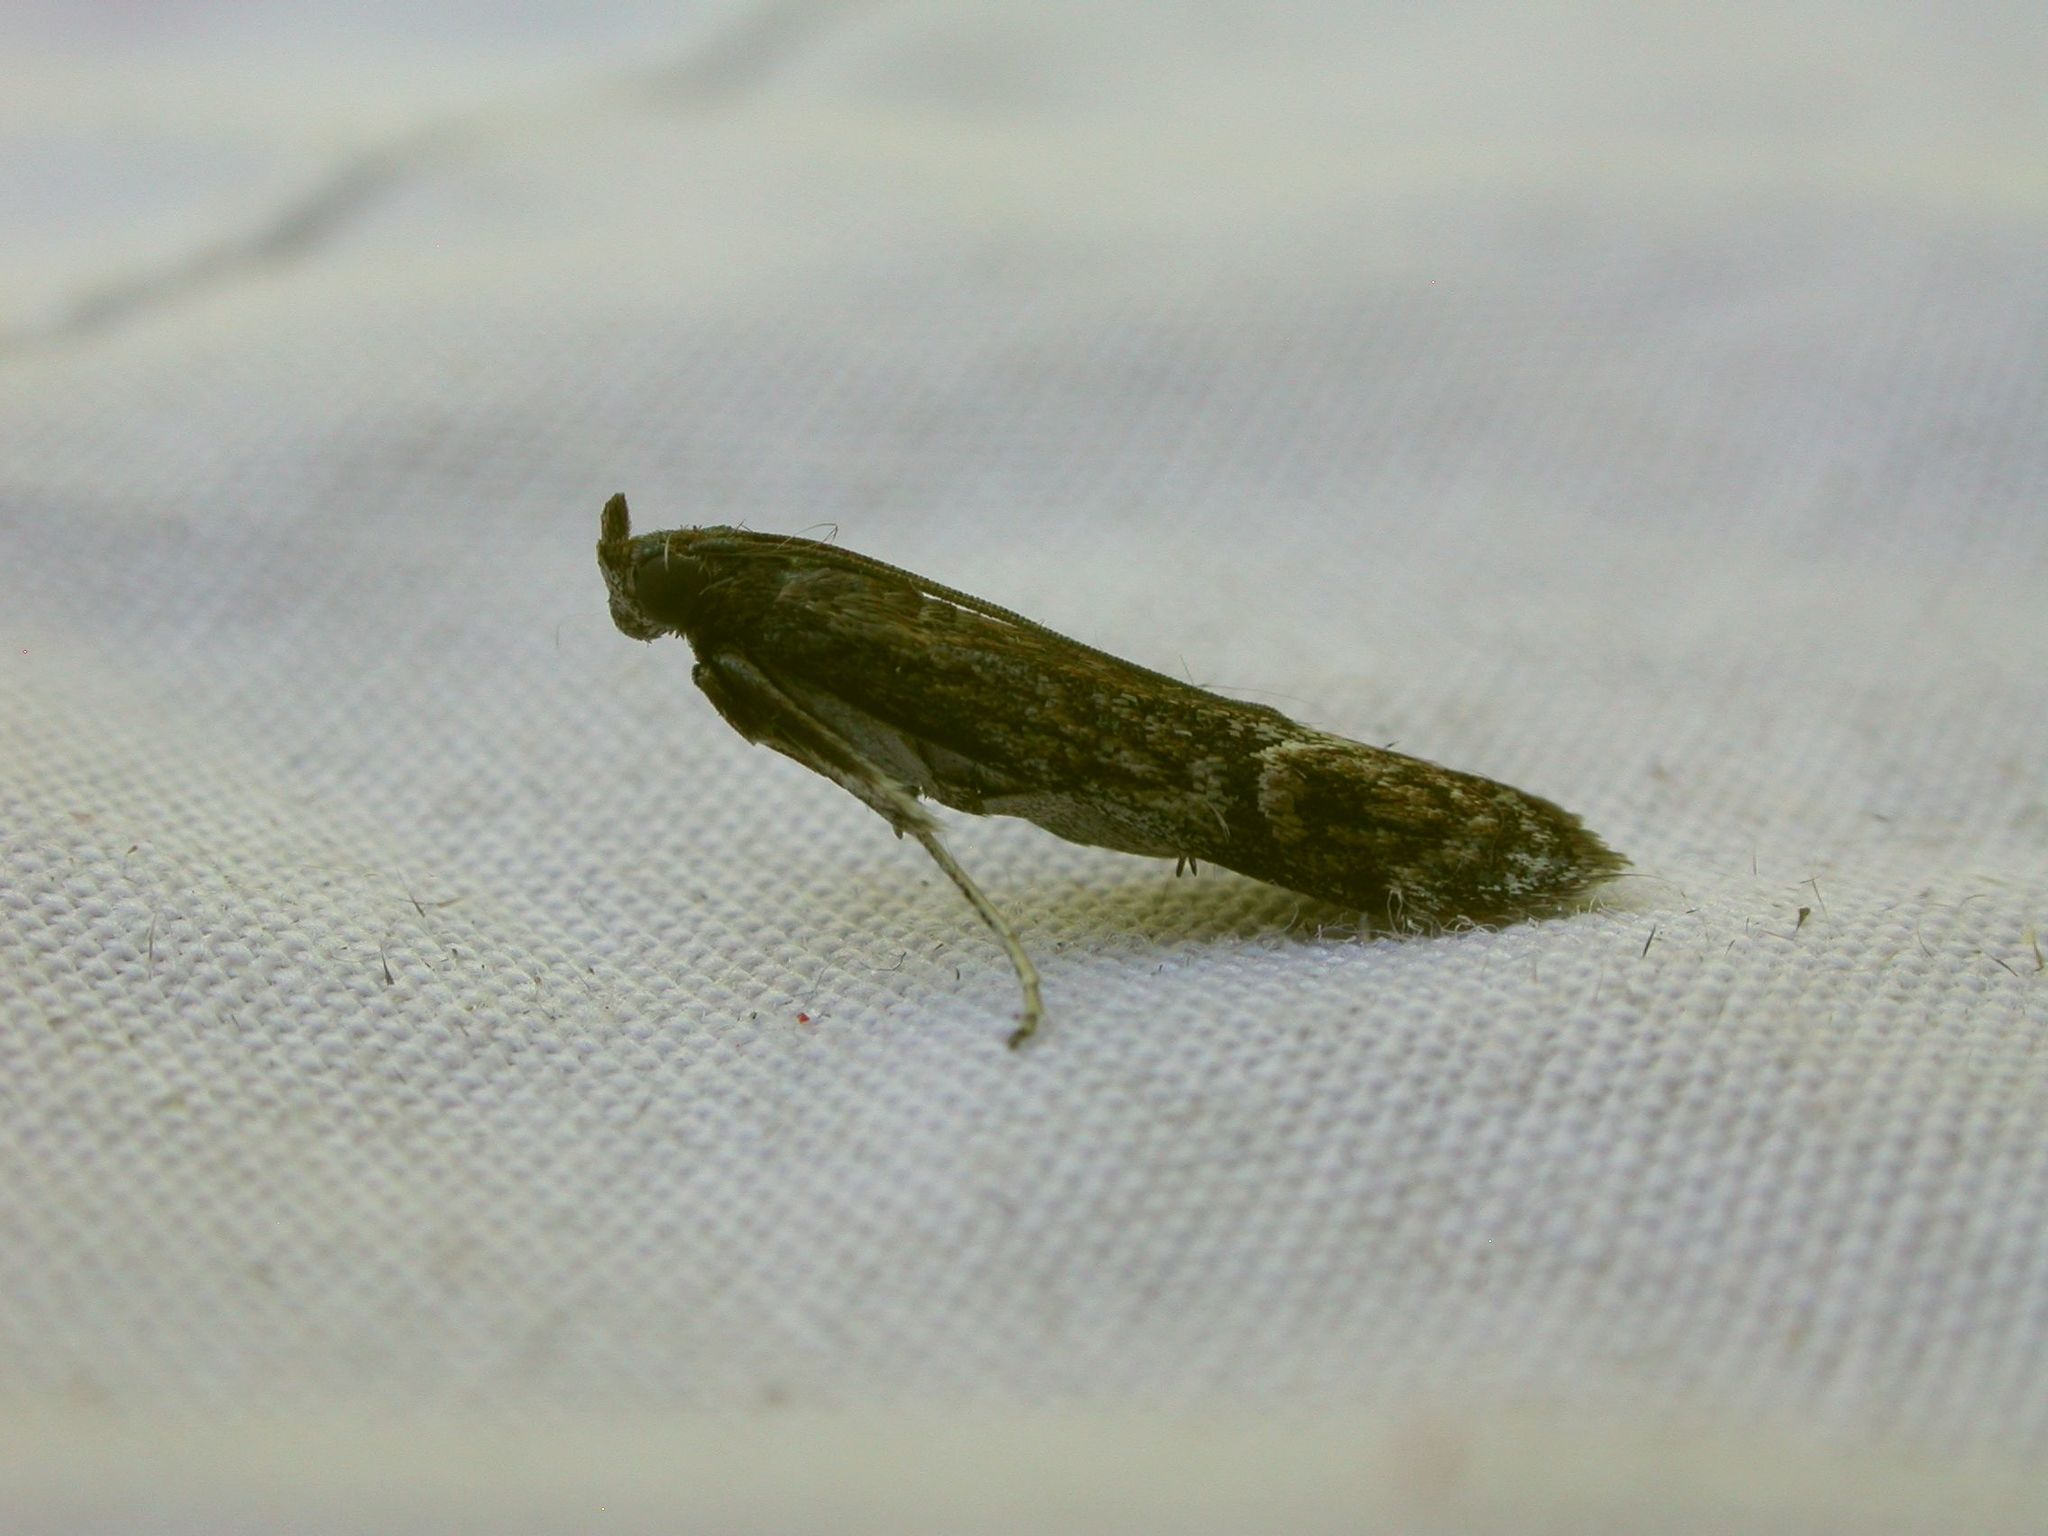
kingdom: Animalia
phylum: Arthropoda
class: Insecta
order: Lepidoptera
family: Pyralidae
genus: Balanomis
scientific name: Balanomis encyclia
